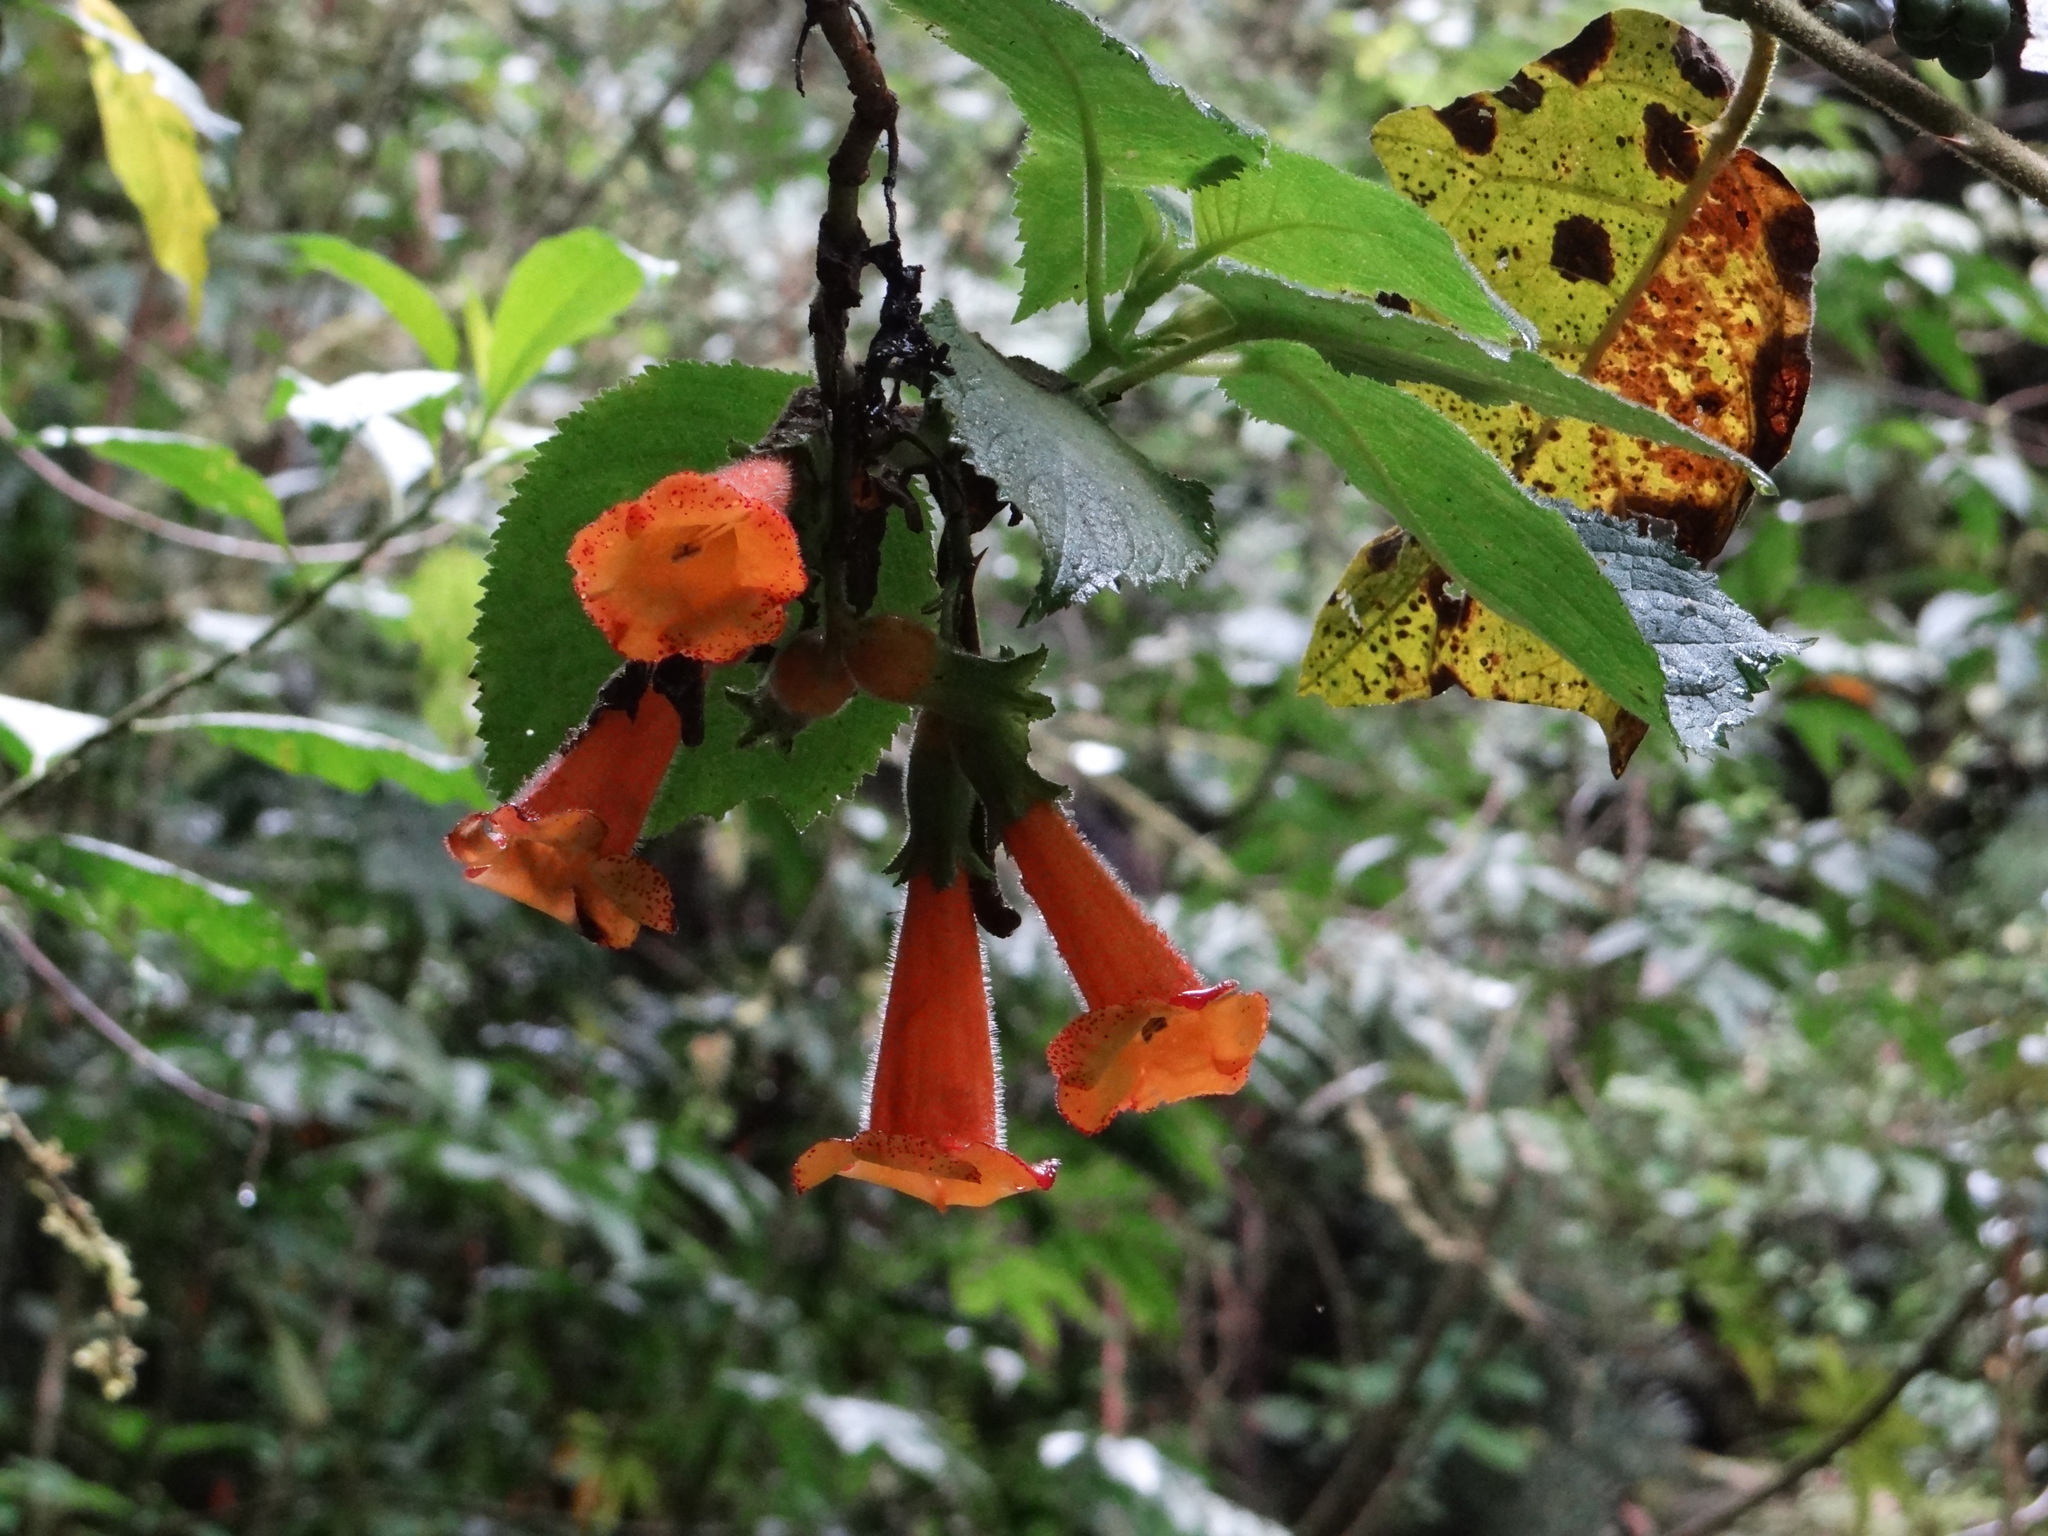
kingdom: Plantae
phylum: Tracheophyta
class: Magnoliopsida
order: Lamiales
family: Gesneriaceae
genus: Solenophora
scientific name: Solenophora calycosa
